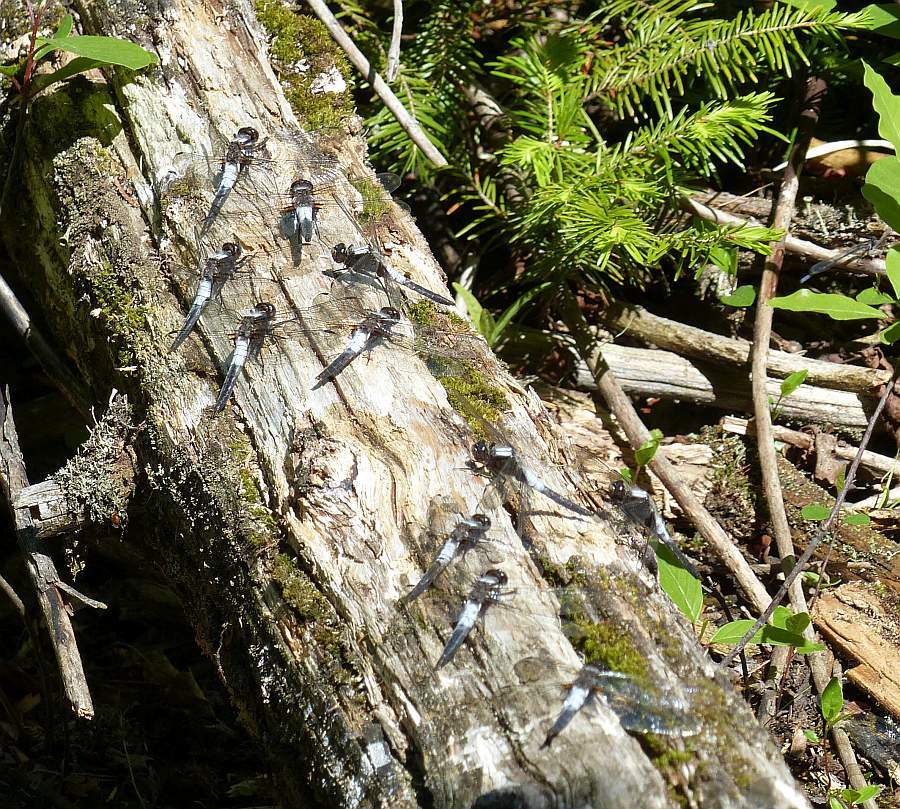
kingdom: Animalia
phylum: Arthropoda
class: Insecta
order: Odonata
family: Libellulidae
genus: Ladona
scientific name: Ladona julia
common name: Chalk-fronted corporal
